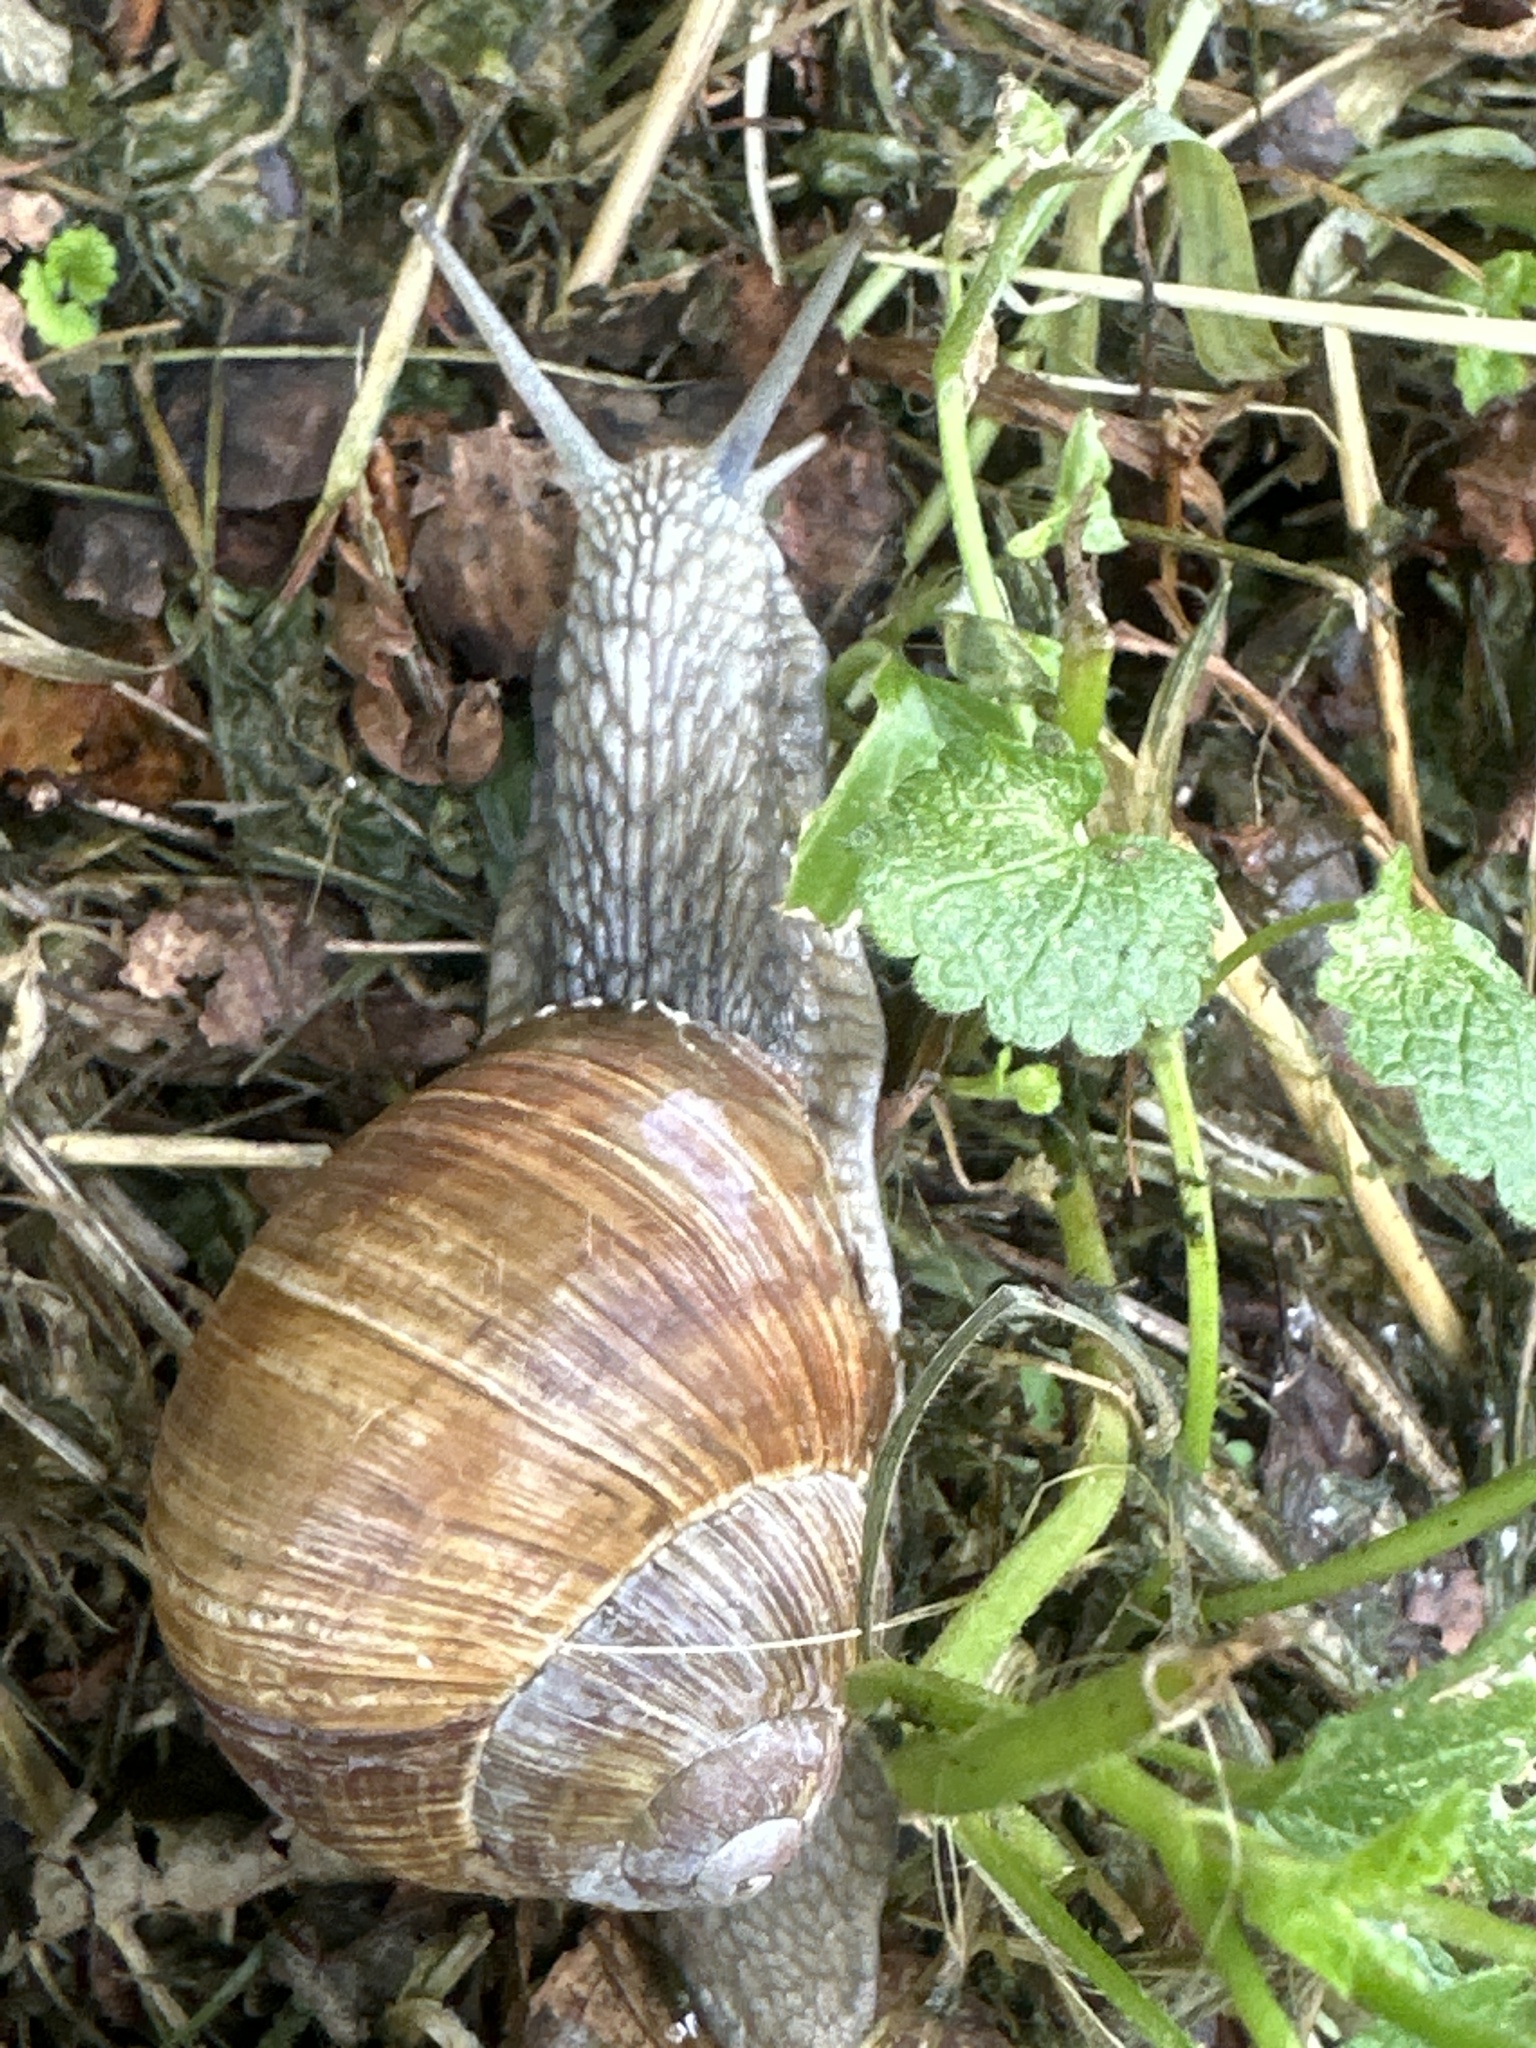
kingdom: Animalia
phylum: Mollusca
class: Gastropoda
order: Stylommatophora
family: Helicidae
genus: Helix
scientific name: Helix pomatia
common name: Roman snail
